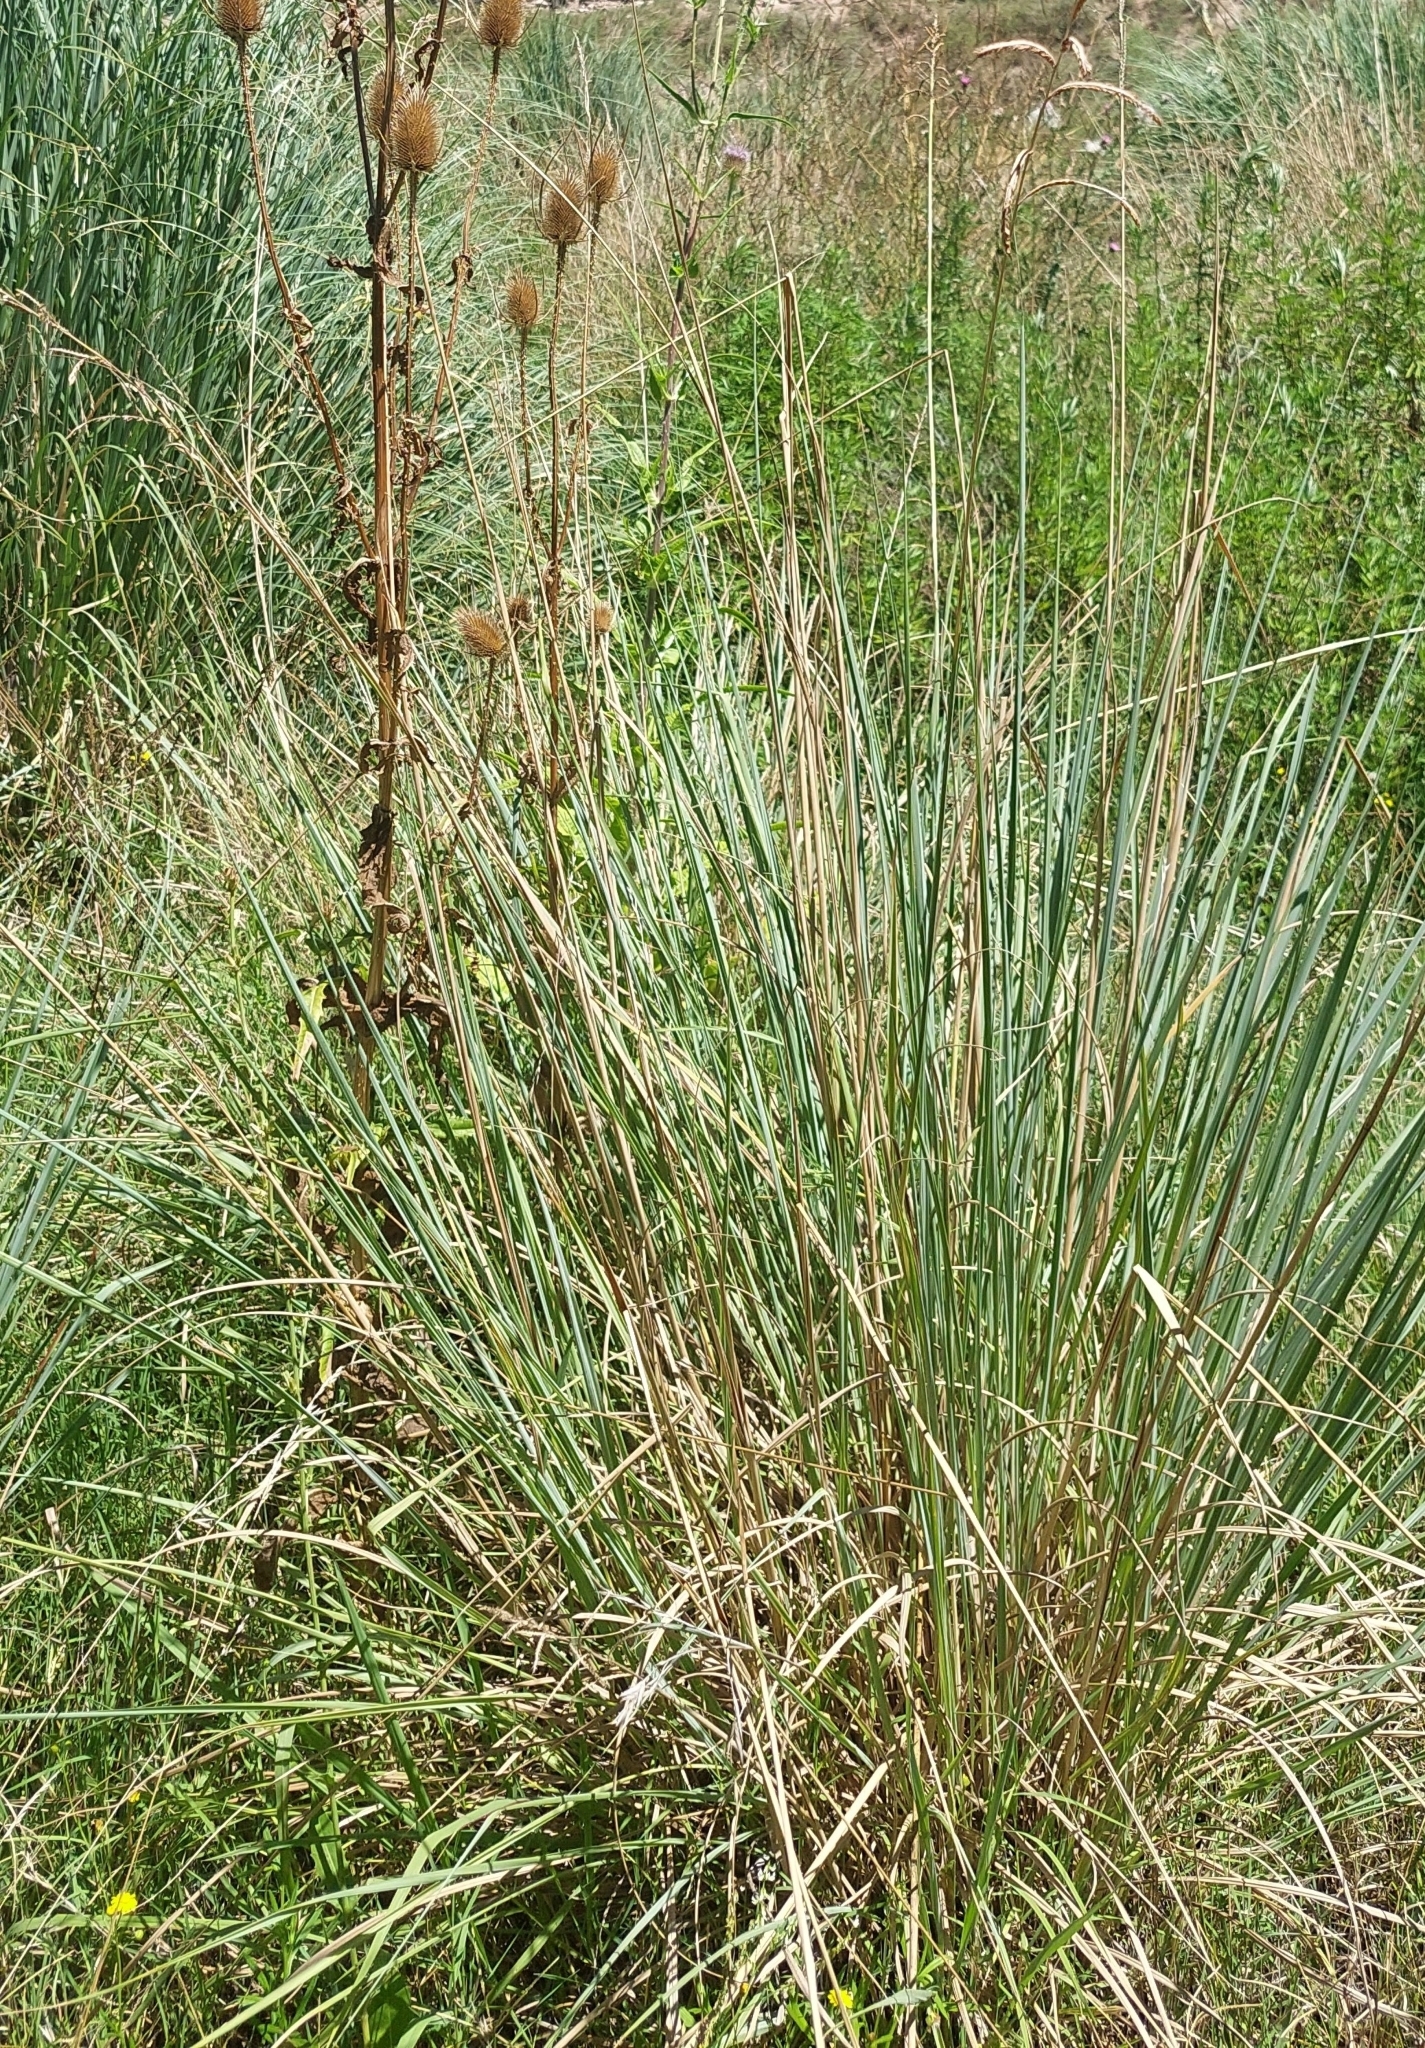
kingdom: Plantae
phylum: Tracheophyta
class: Liliopsida
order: Poales
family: Poaceae
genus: Paspalum
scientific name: Paspalum quadrifarium
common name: Tussock paspalum
